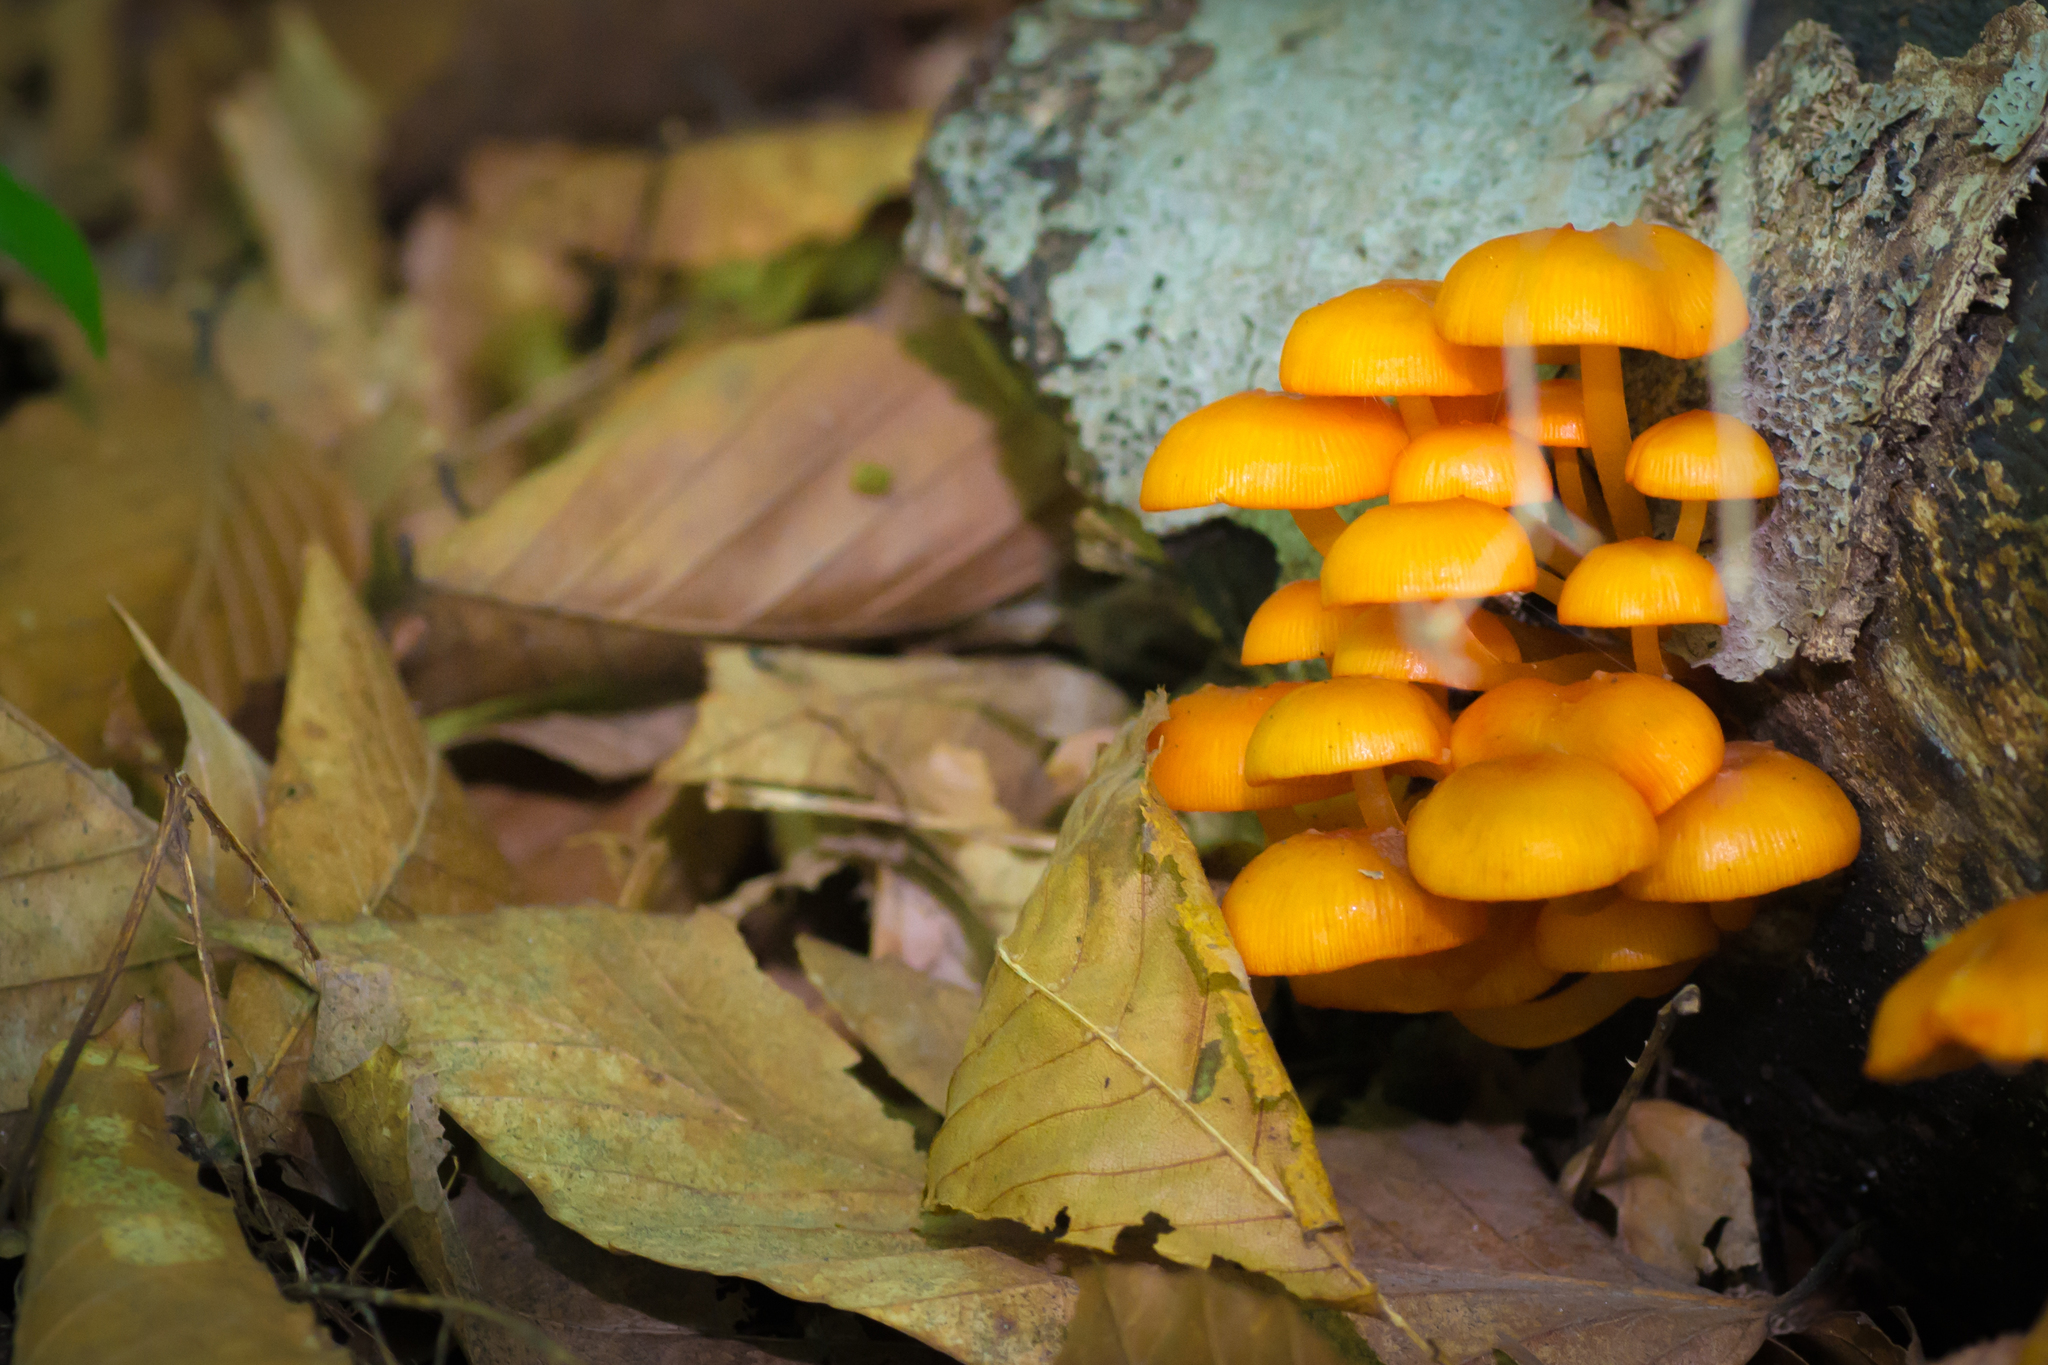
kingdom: Fungi
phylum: Basidiomycota
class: Agaricomycetes
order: Agaricales
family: Mycenaceae
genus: Mycena
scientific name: Mycena leaiana
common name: Orange mycena
